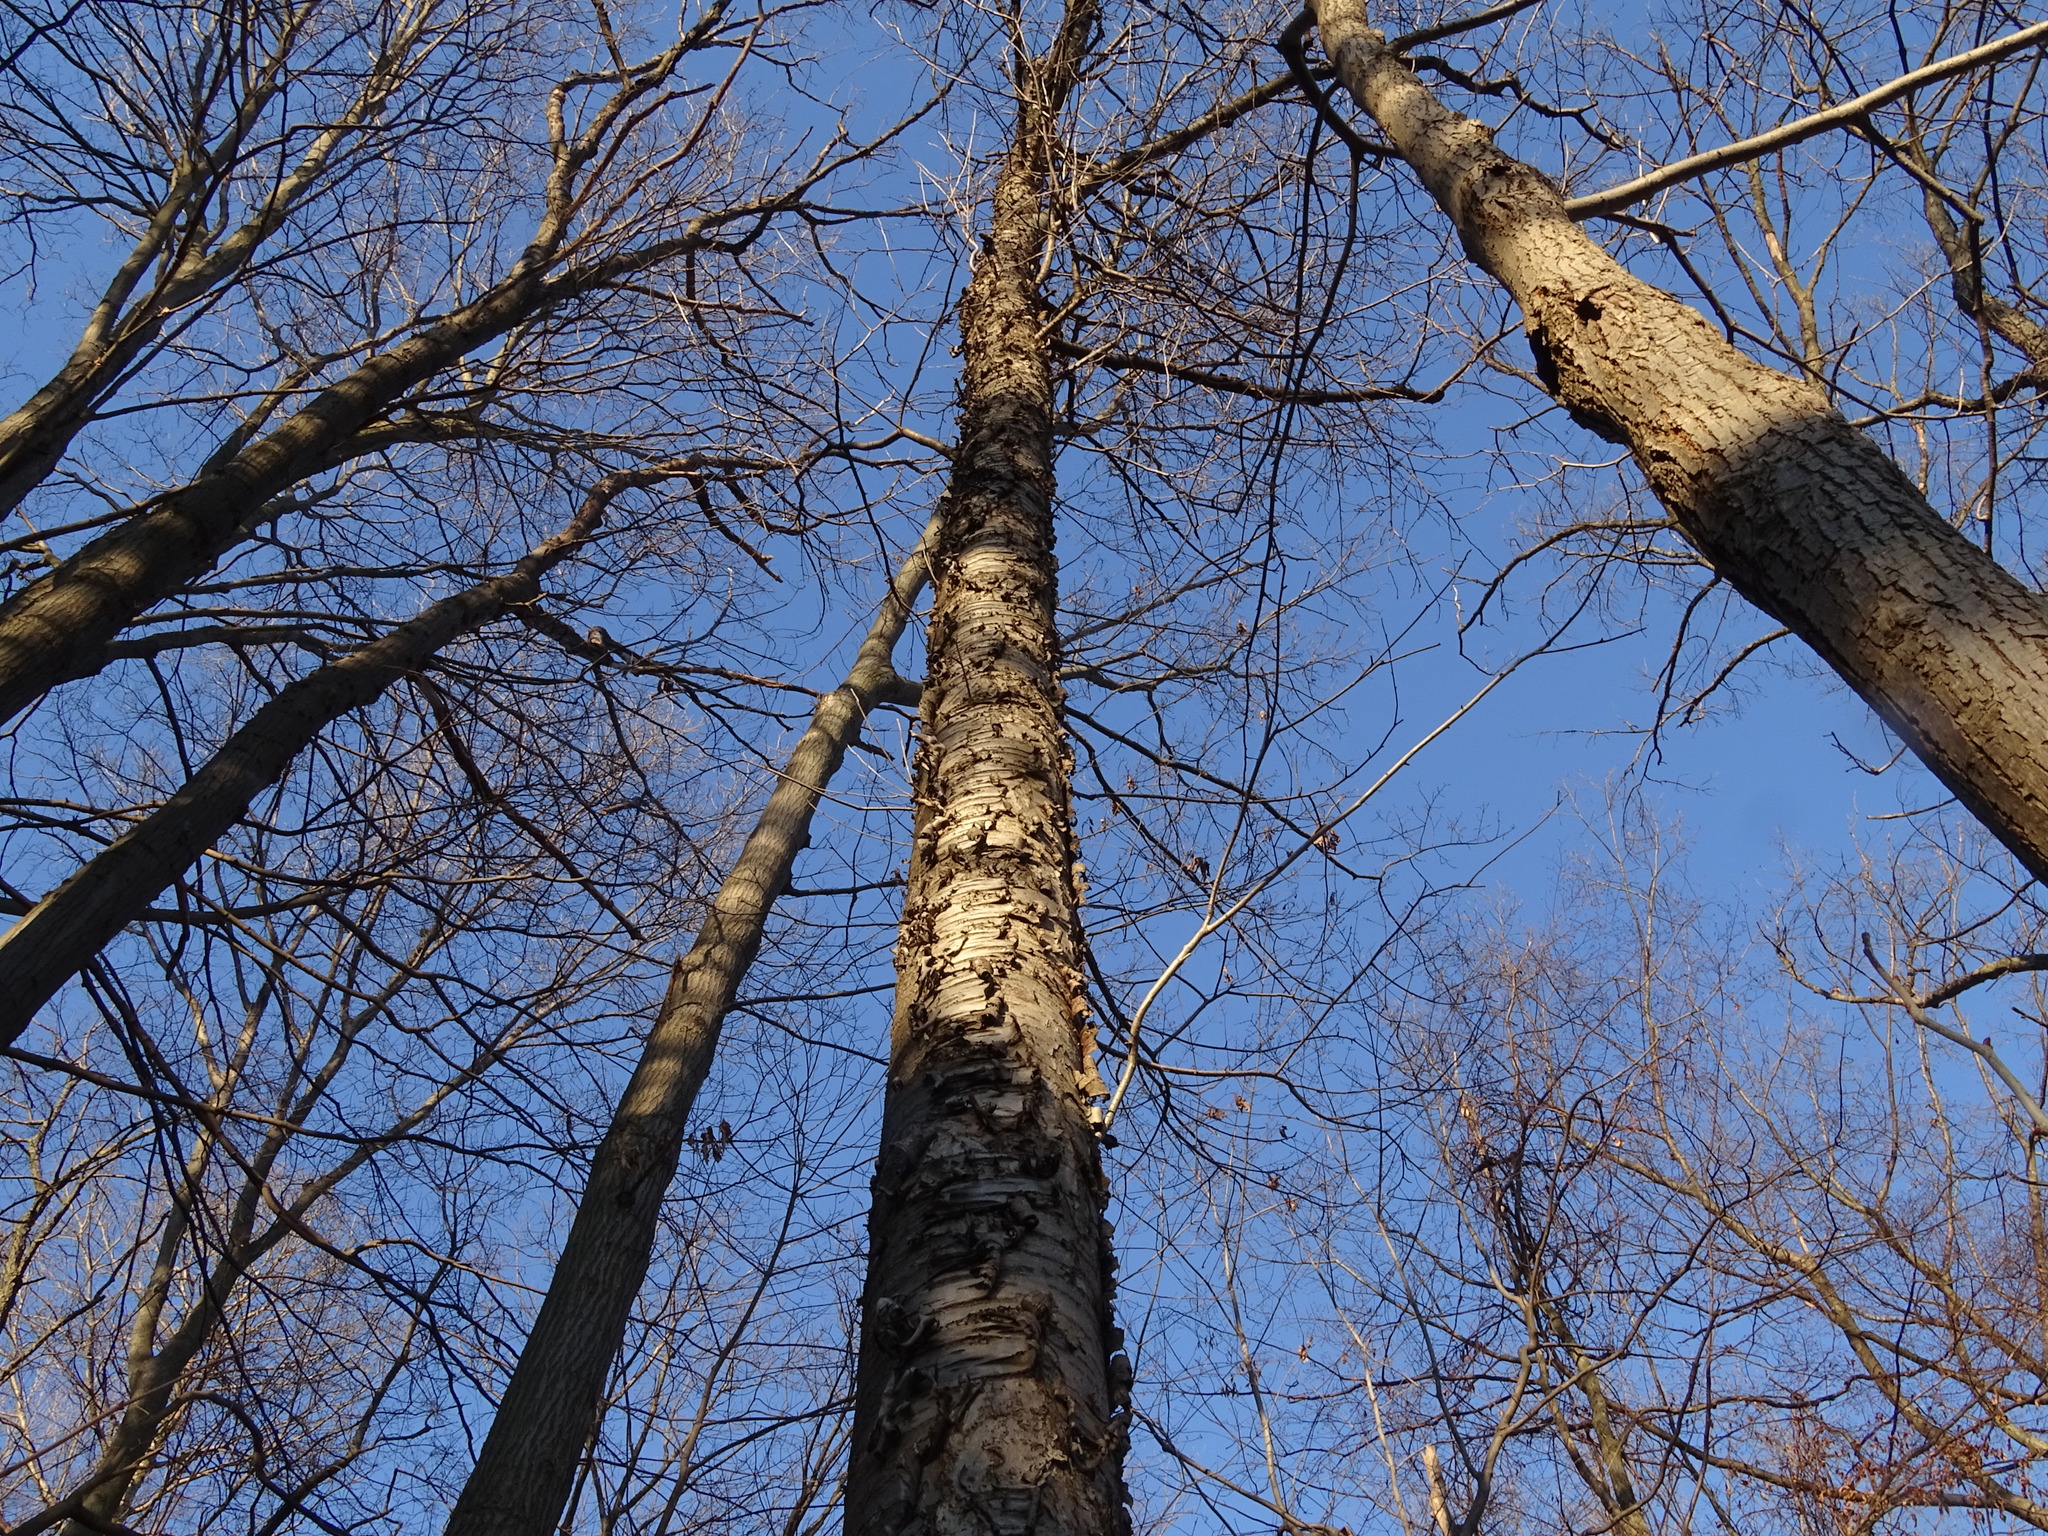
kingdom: Plantae
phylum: Tracheophyta
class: Magnoliopsida
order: Rosales
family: Rosaceae
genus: Prunus
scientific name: Prunus avium
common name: Sweet cherry
